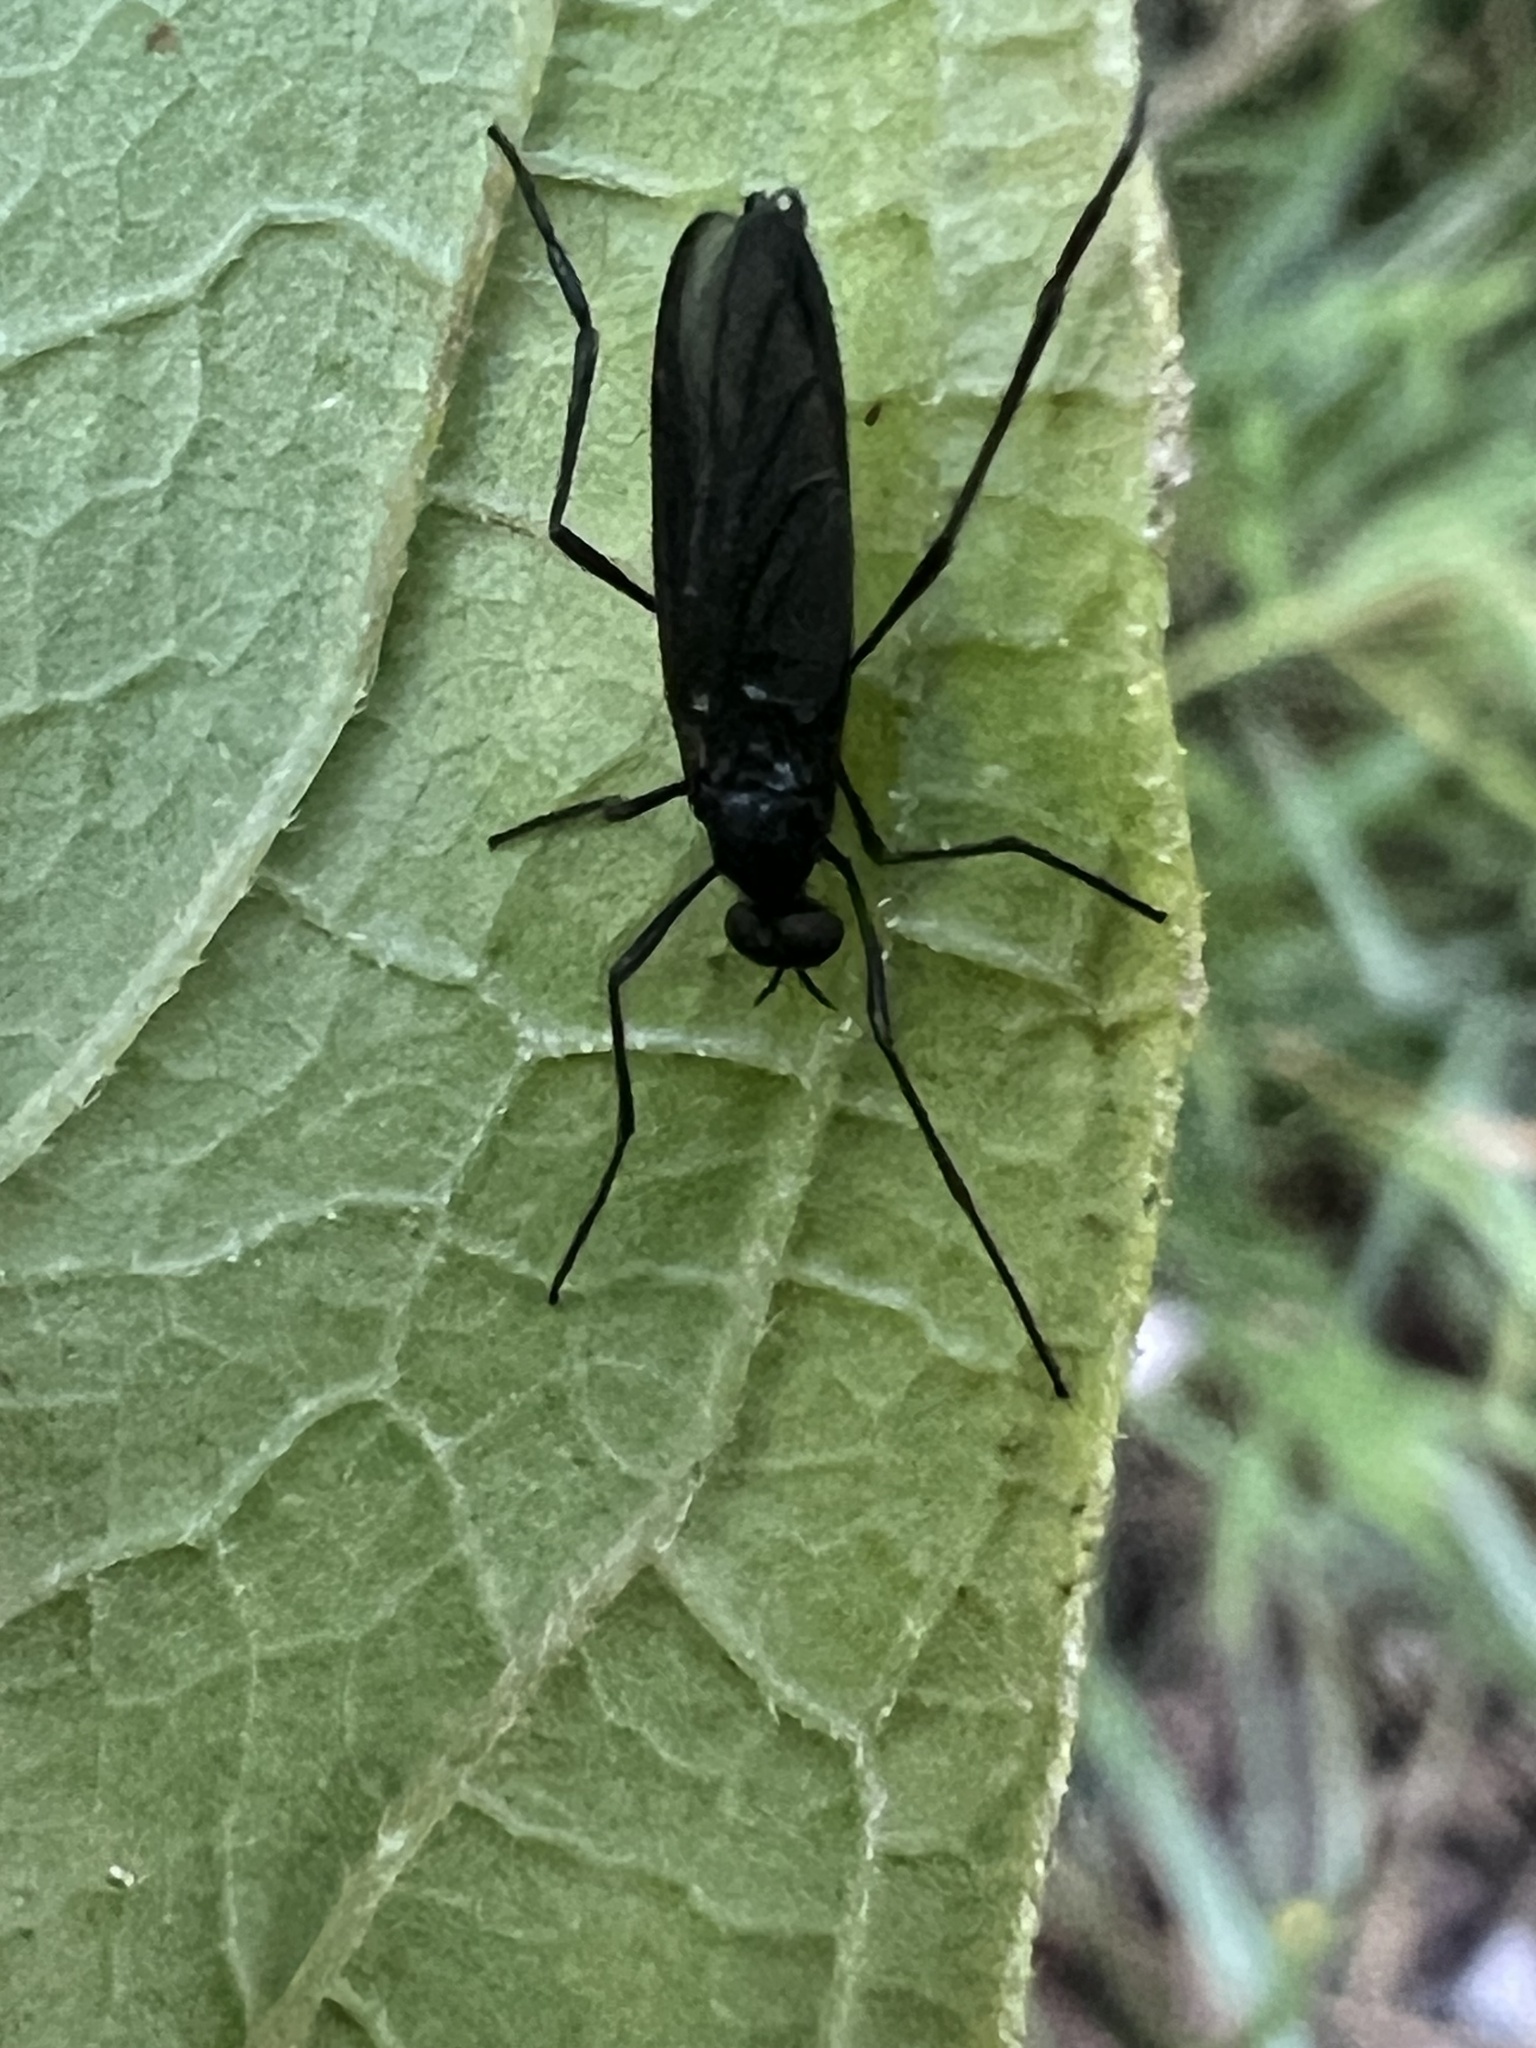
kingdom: Animalia
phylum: Arthropoda
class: Insecta
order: Diptera
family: Bibionidae
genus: Penthetria
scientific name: Penthetria heteroptera
